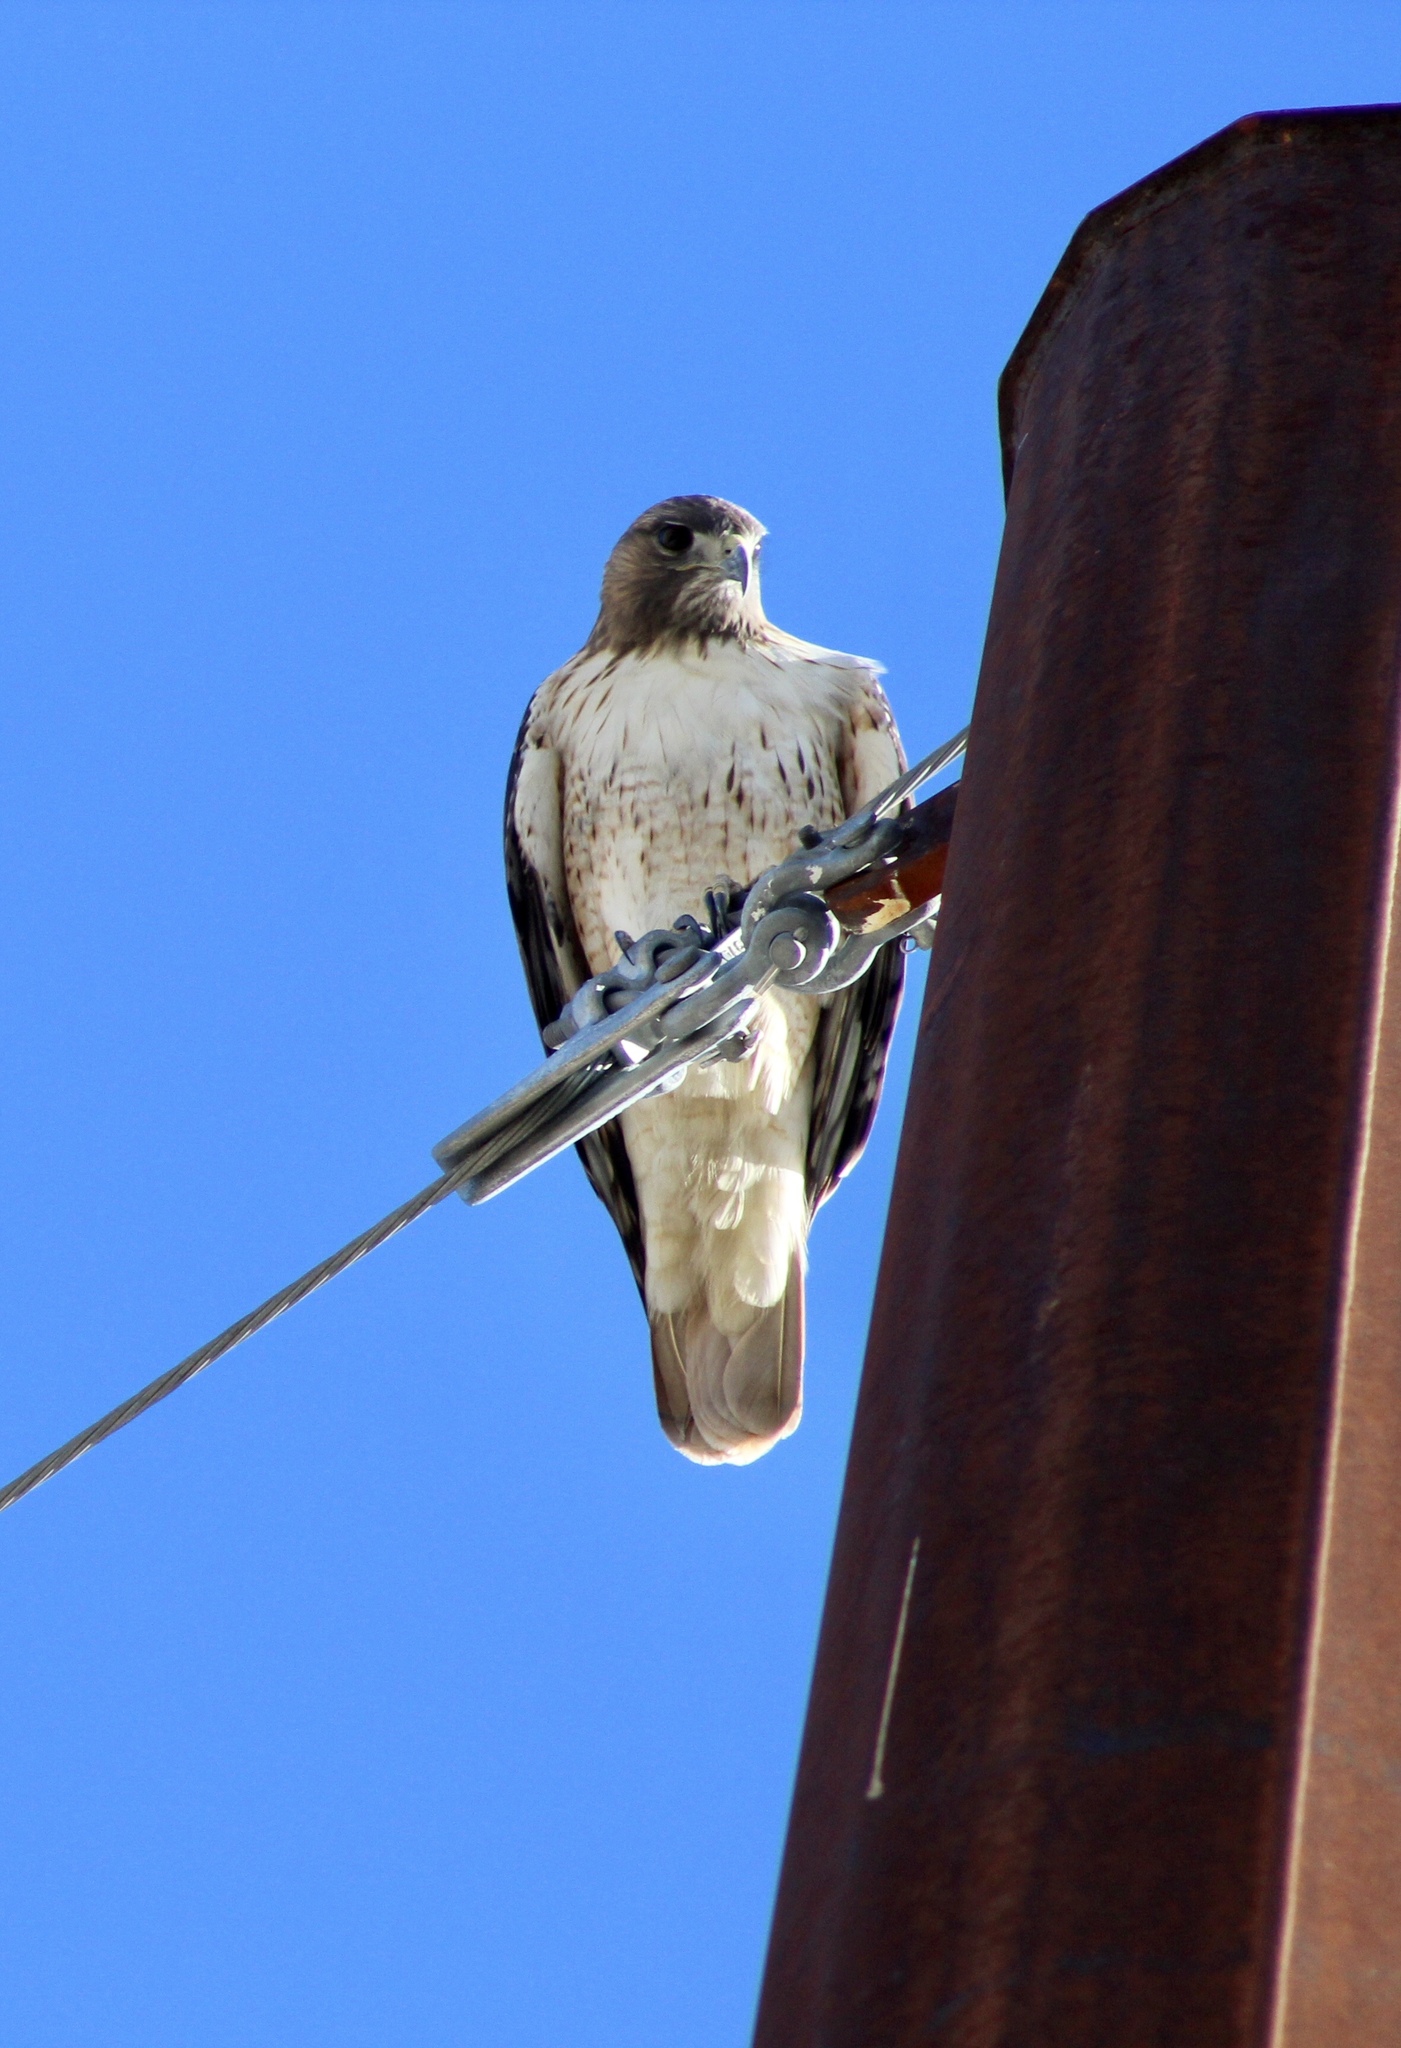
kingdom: Animalia
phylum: Chordata
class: Aves
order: Accipitriformes
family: Accipitridae
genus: Buteo
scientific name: Buteo jamaicensis
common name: Red-tailed hawk
